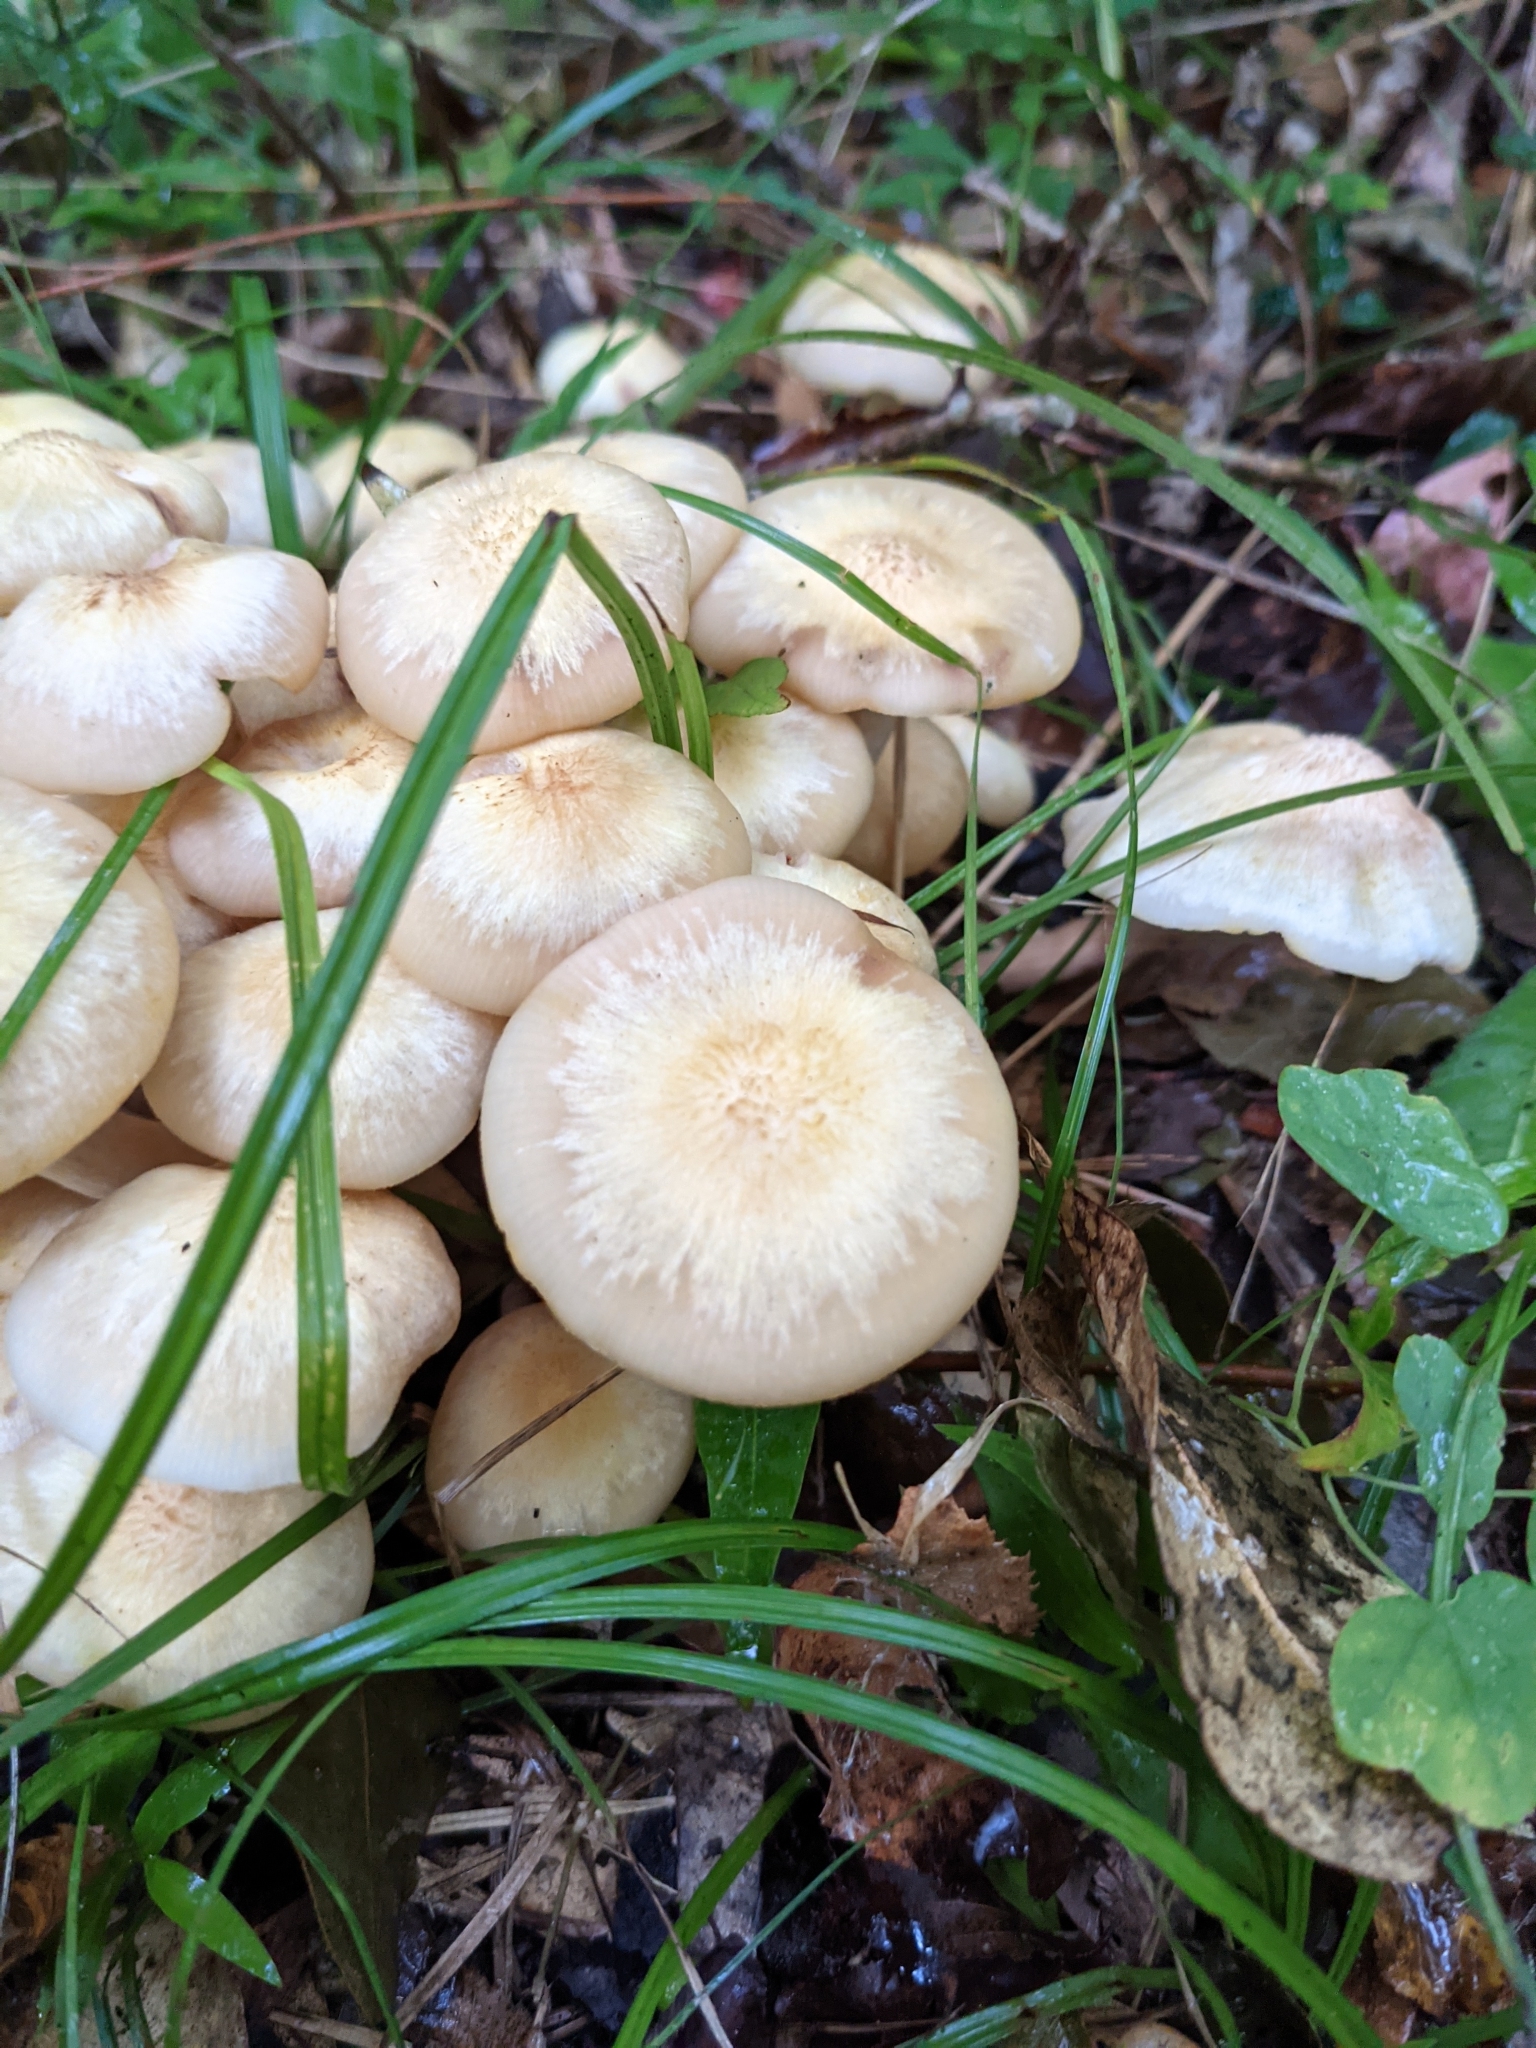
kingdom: Fungi
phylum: Basidiomycota
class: Agaricomycetes
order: Agaricales
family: Physalacriaceae
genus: Desarmillaria
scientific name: Desarmillaria caespitosa
